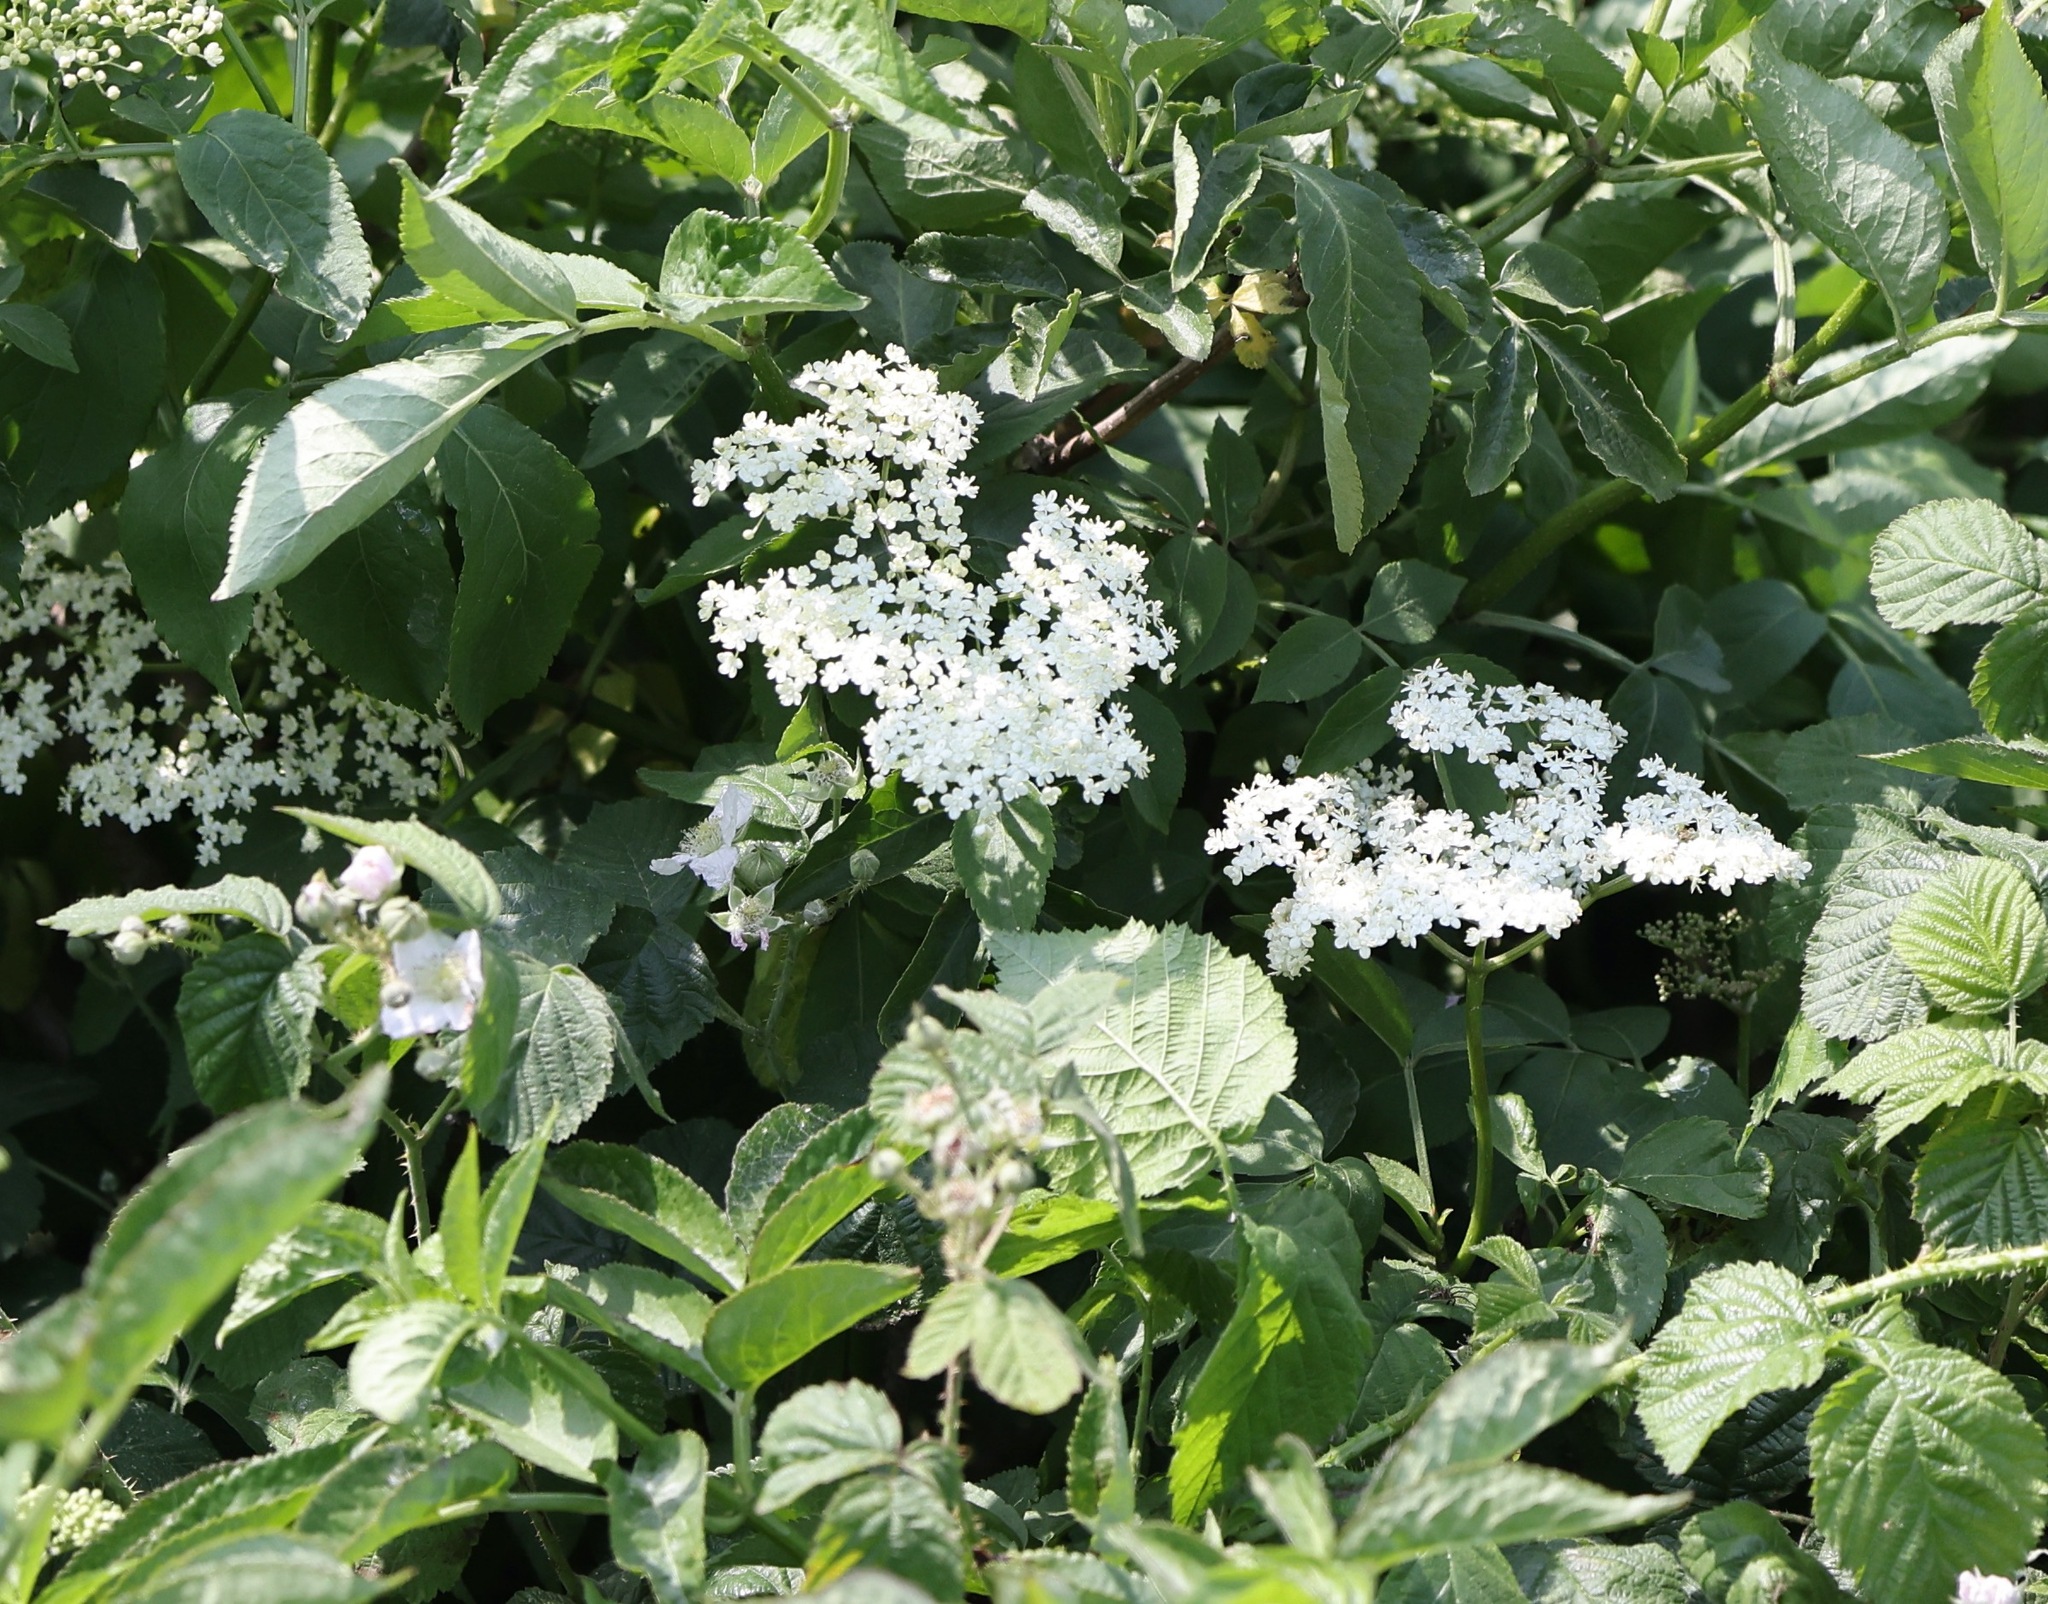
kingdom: Plantae
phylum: Tracheophyta
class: Magnoliopsida
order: Dipsacales
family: Viburnaceae
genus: Sambucus
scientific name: Sambucus nigra
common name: Elder
